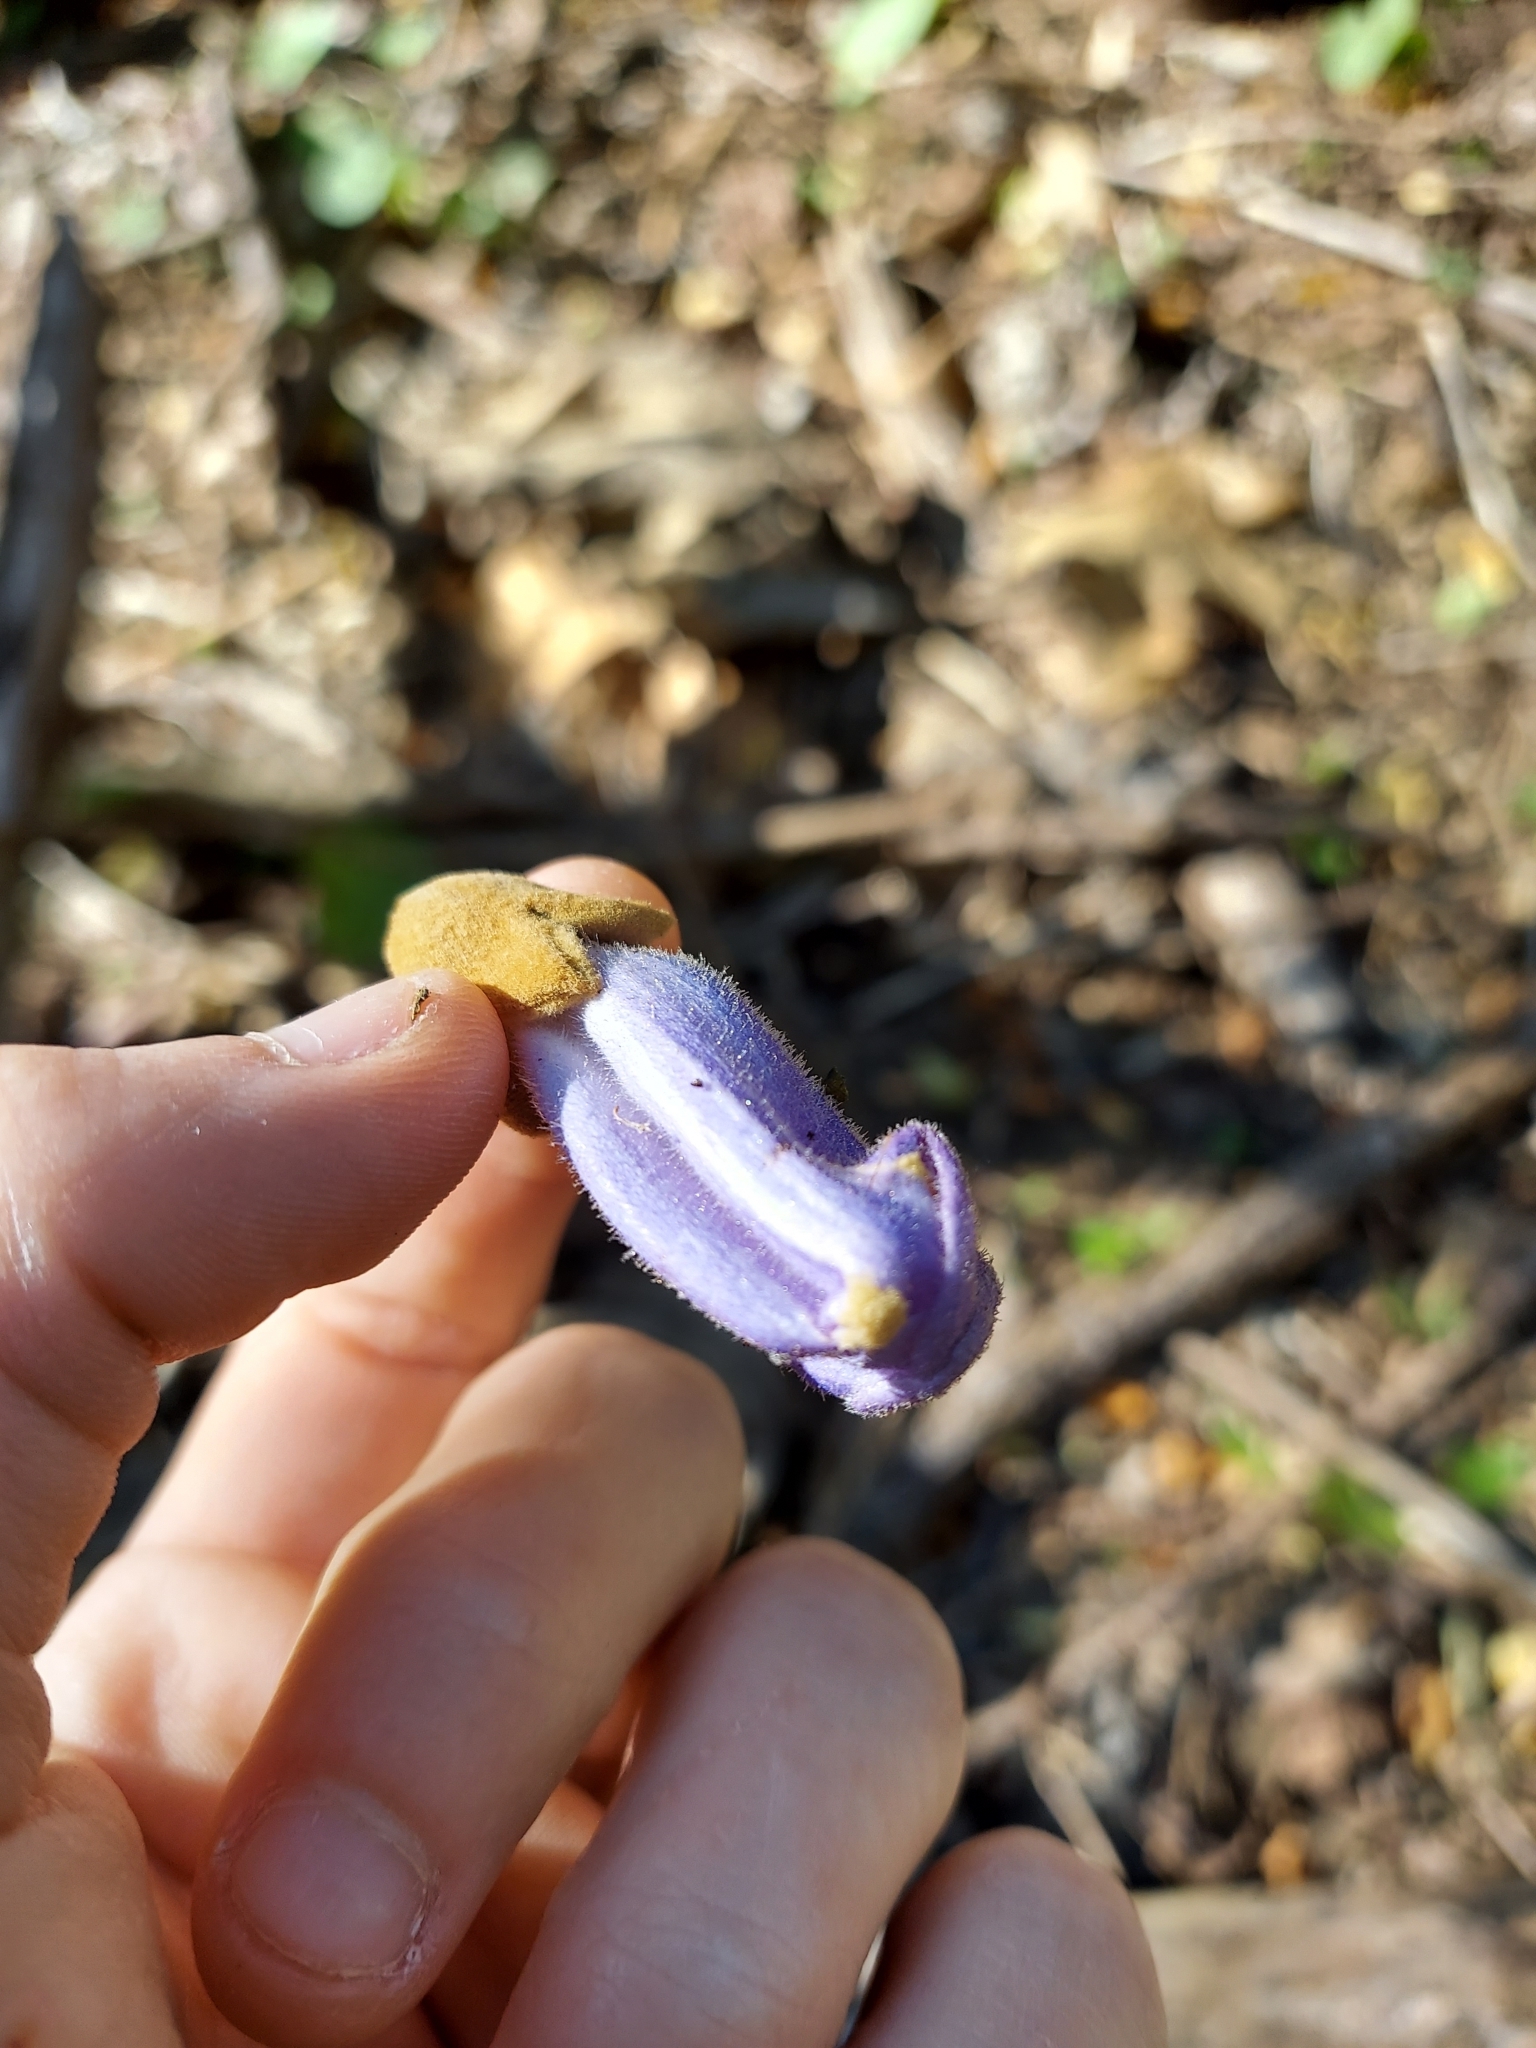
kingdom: Plantae
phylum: Tracheophyta
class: Magnoliopsida
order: Lamiales
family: Paulowniaceae
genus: Paulownia
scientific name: Paulownia tomentosa
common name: Foxglove-tree
